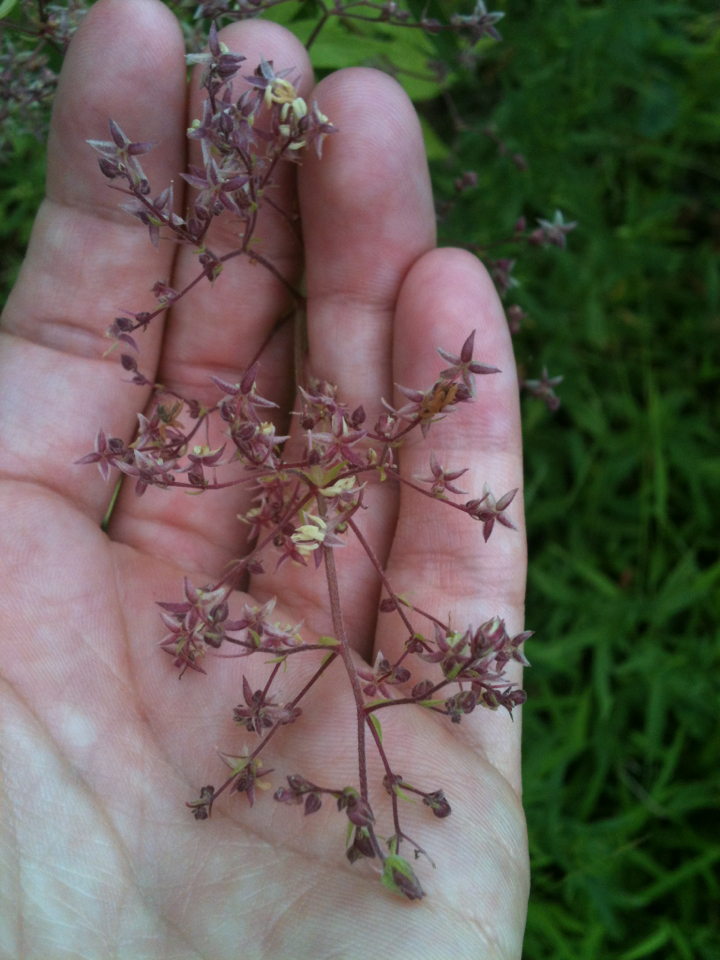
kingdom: Plantae
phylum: Tracheophyta
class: Magnoliopsida
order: Rosales
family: Cannabaceae
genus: Humulus
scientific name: Humulus scandens
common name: Japanese hop
